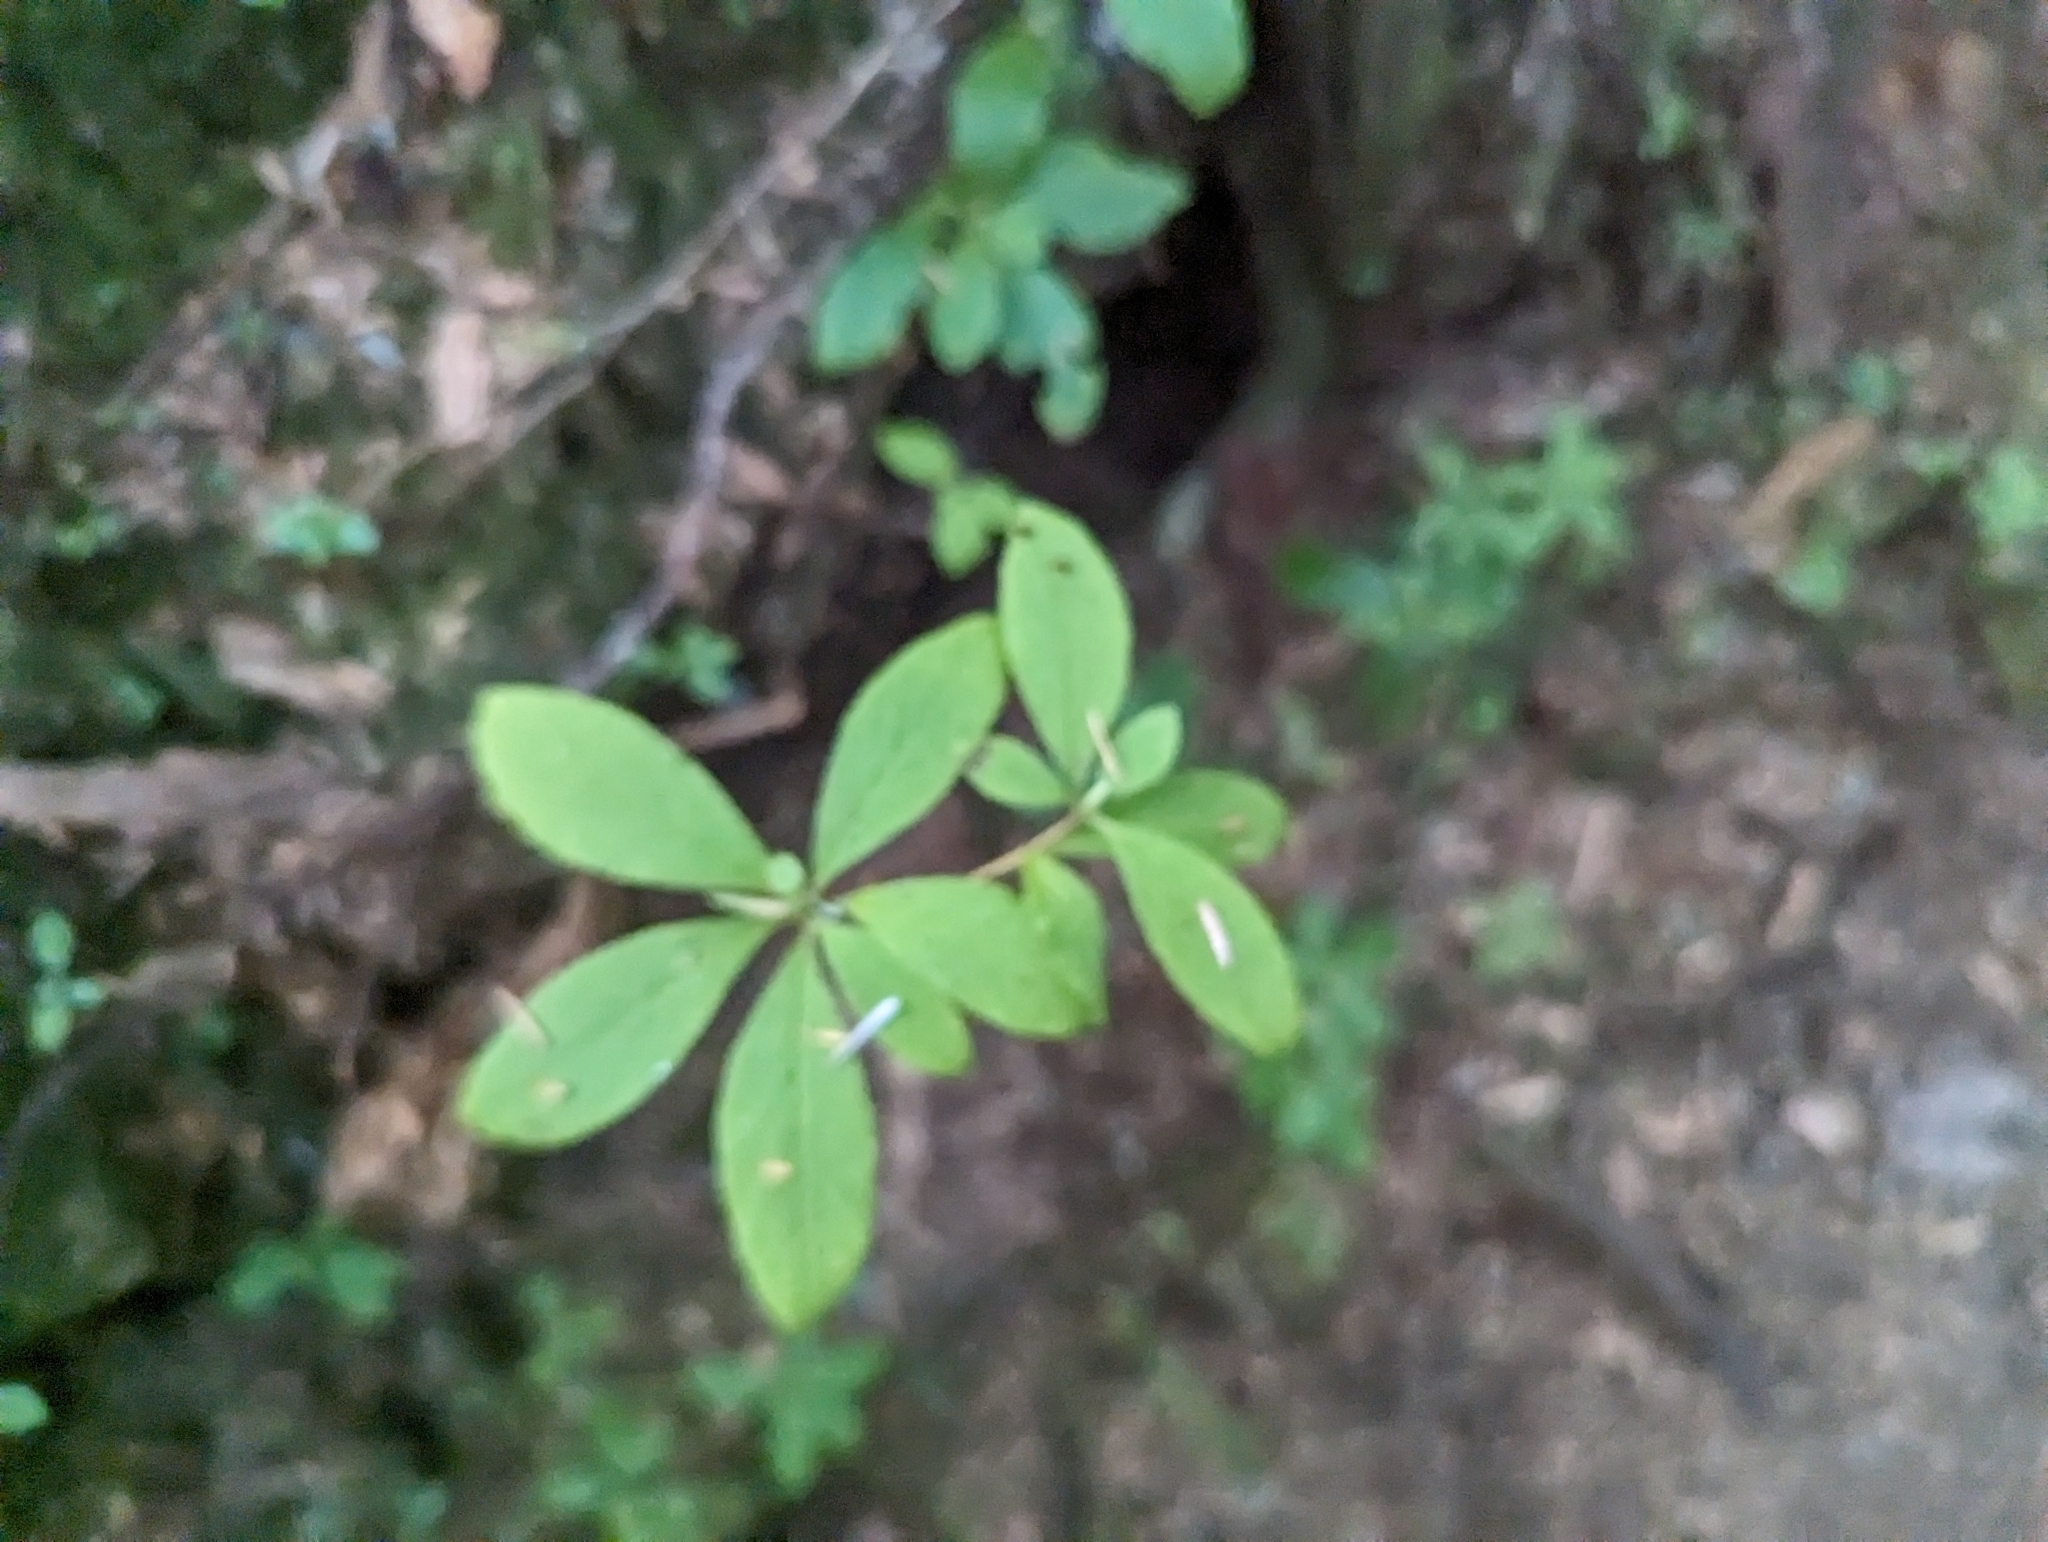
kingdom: Plantae
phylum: Tracheophyta
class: Magnoliopsida
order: Ericales
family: Ericaceae
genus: Rhododendron
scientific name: Rhododendron menziesii
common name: Pacific menziesia
